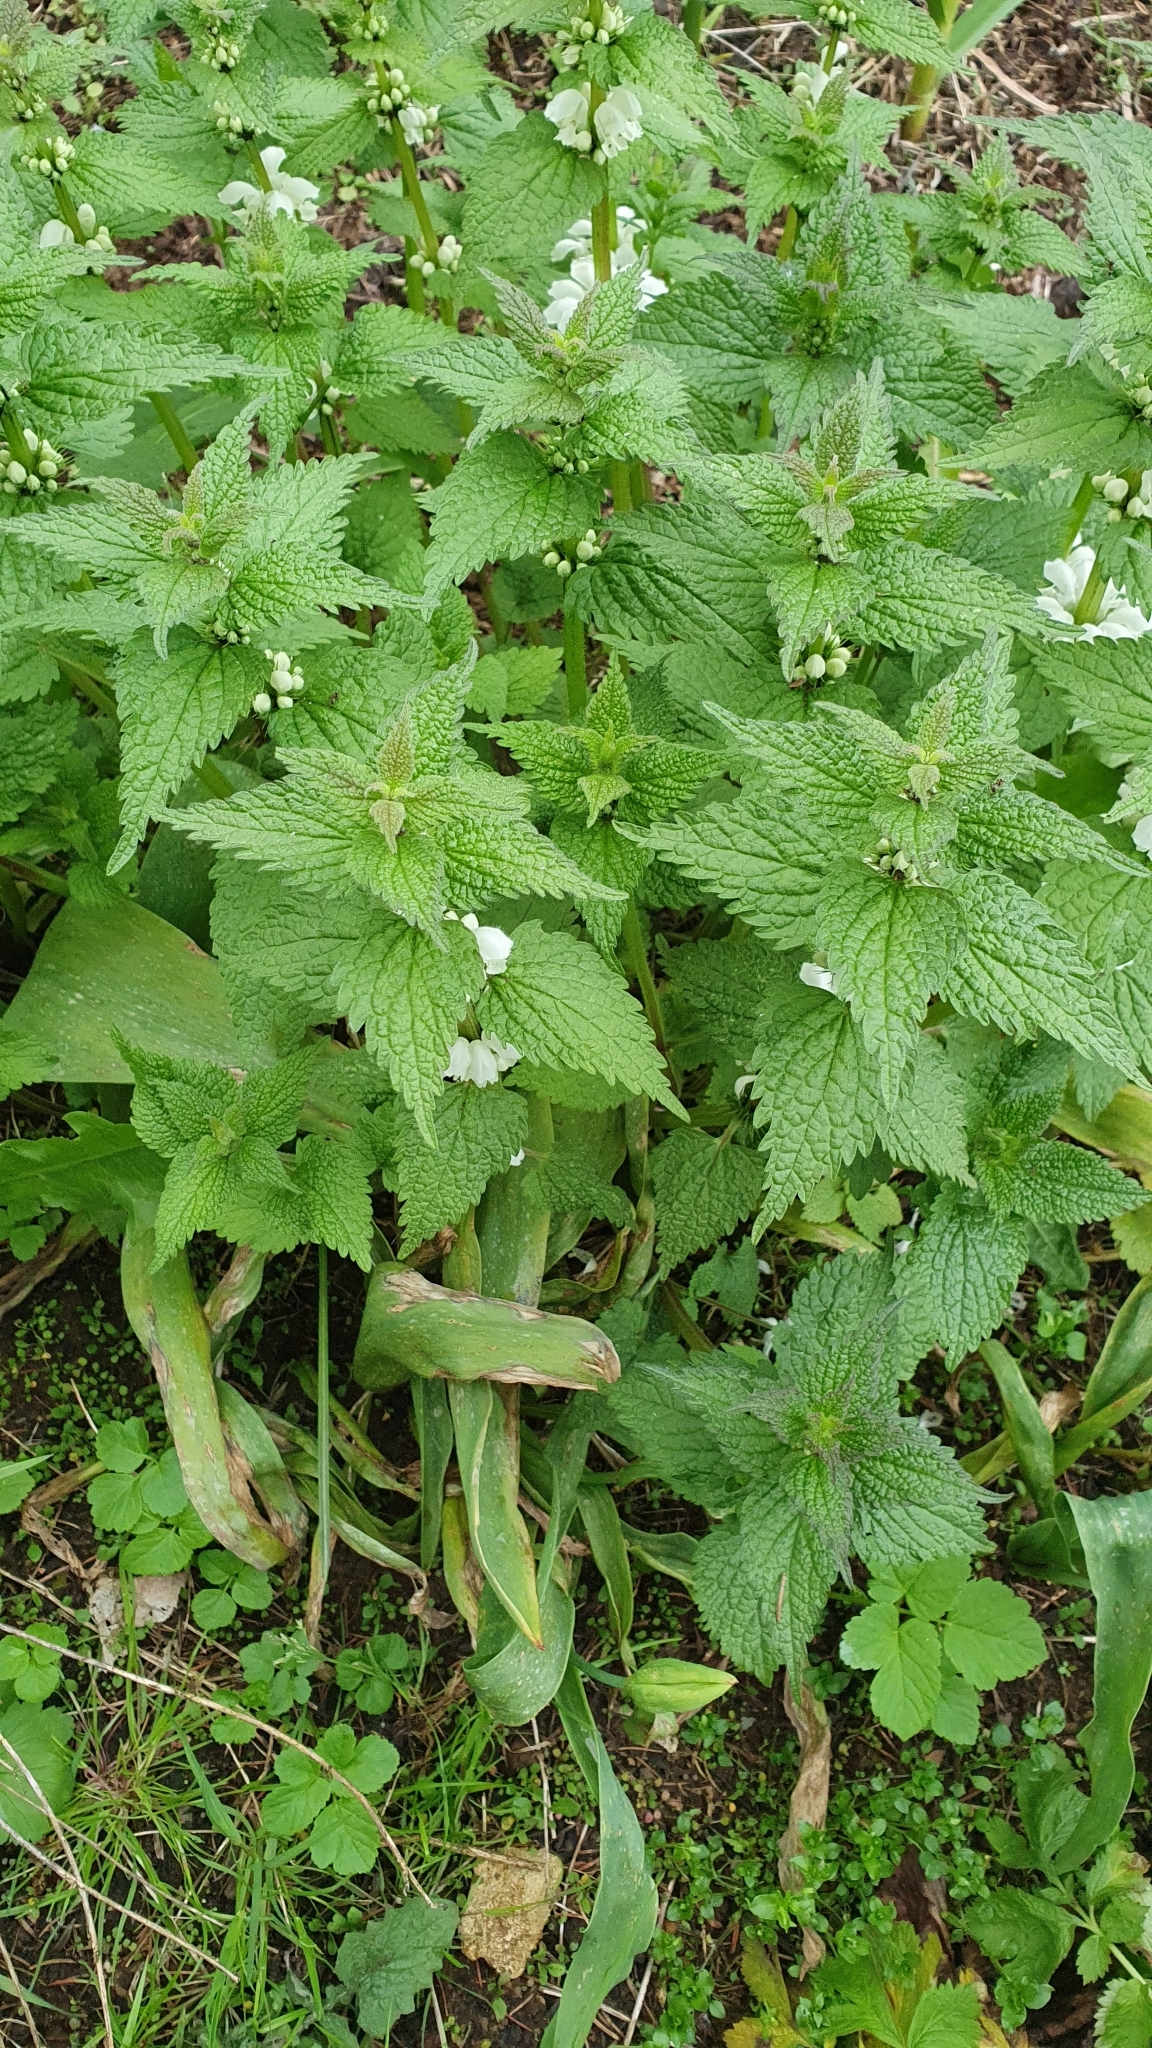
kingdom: Plantae
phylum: Tracheophyta
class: Magnoliopsida
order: Lamiales
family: Lamiaceae
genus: Lamium
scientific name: Lamium album
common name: White dead-nettle
